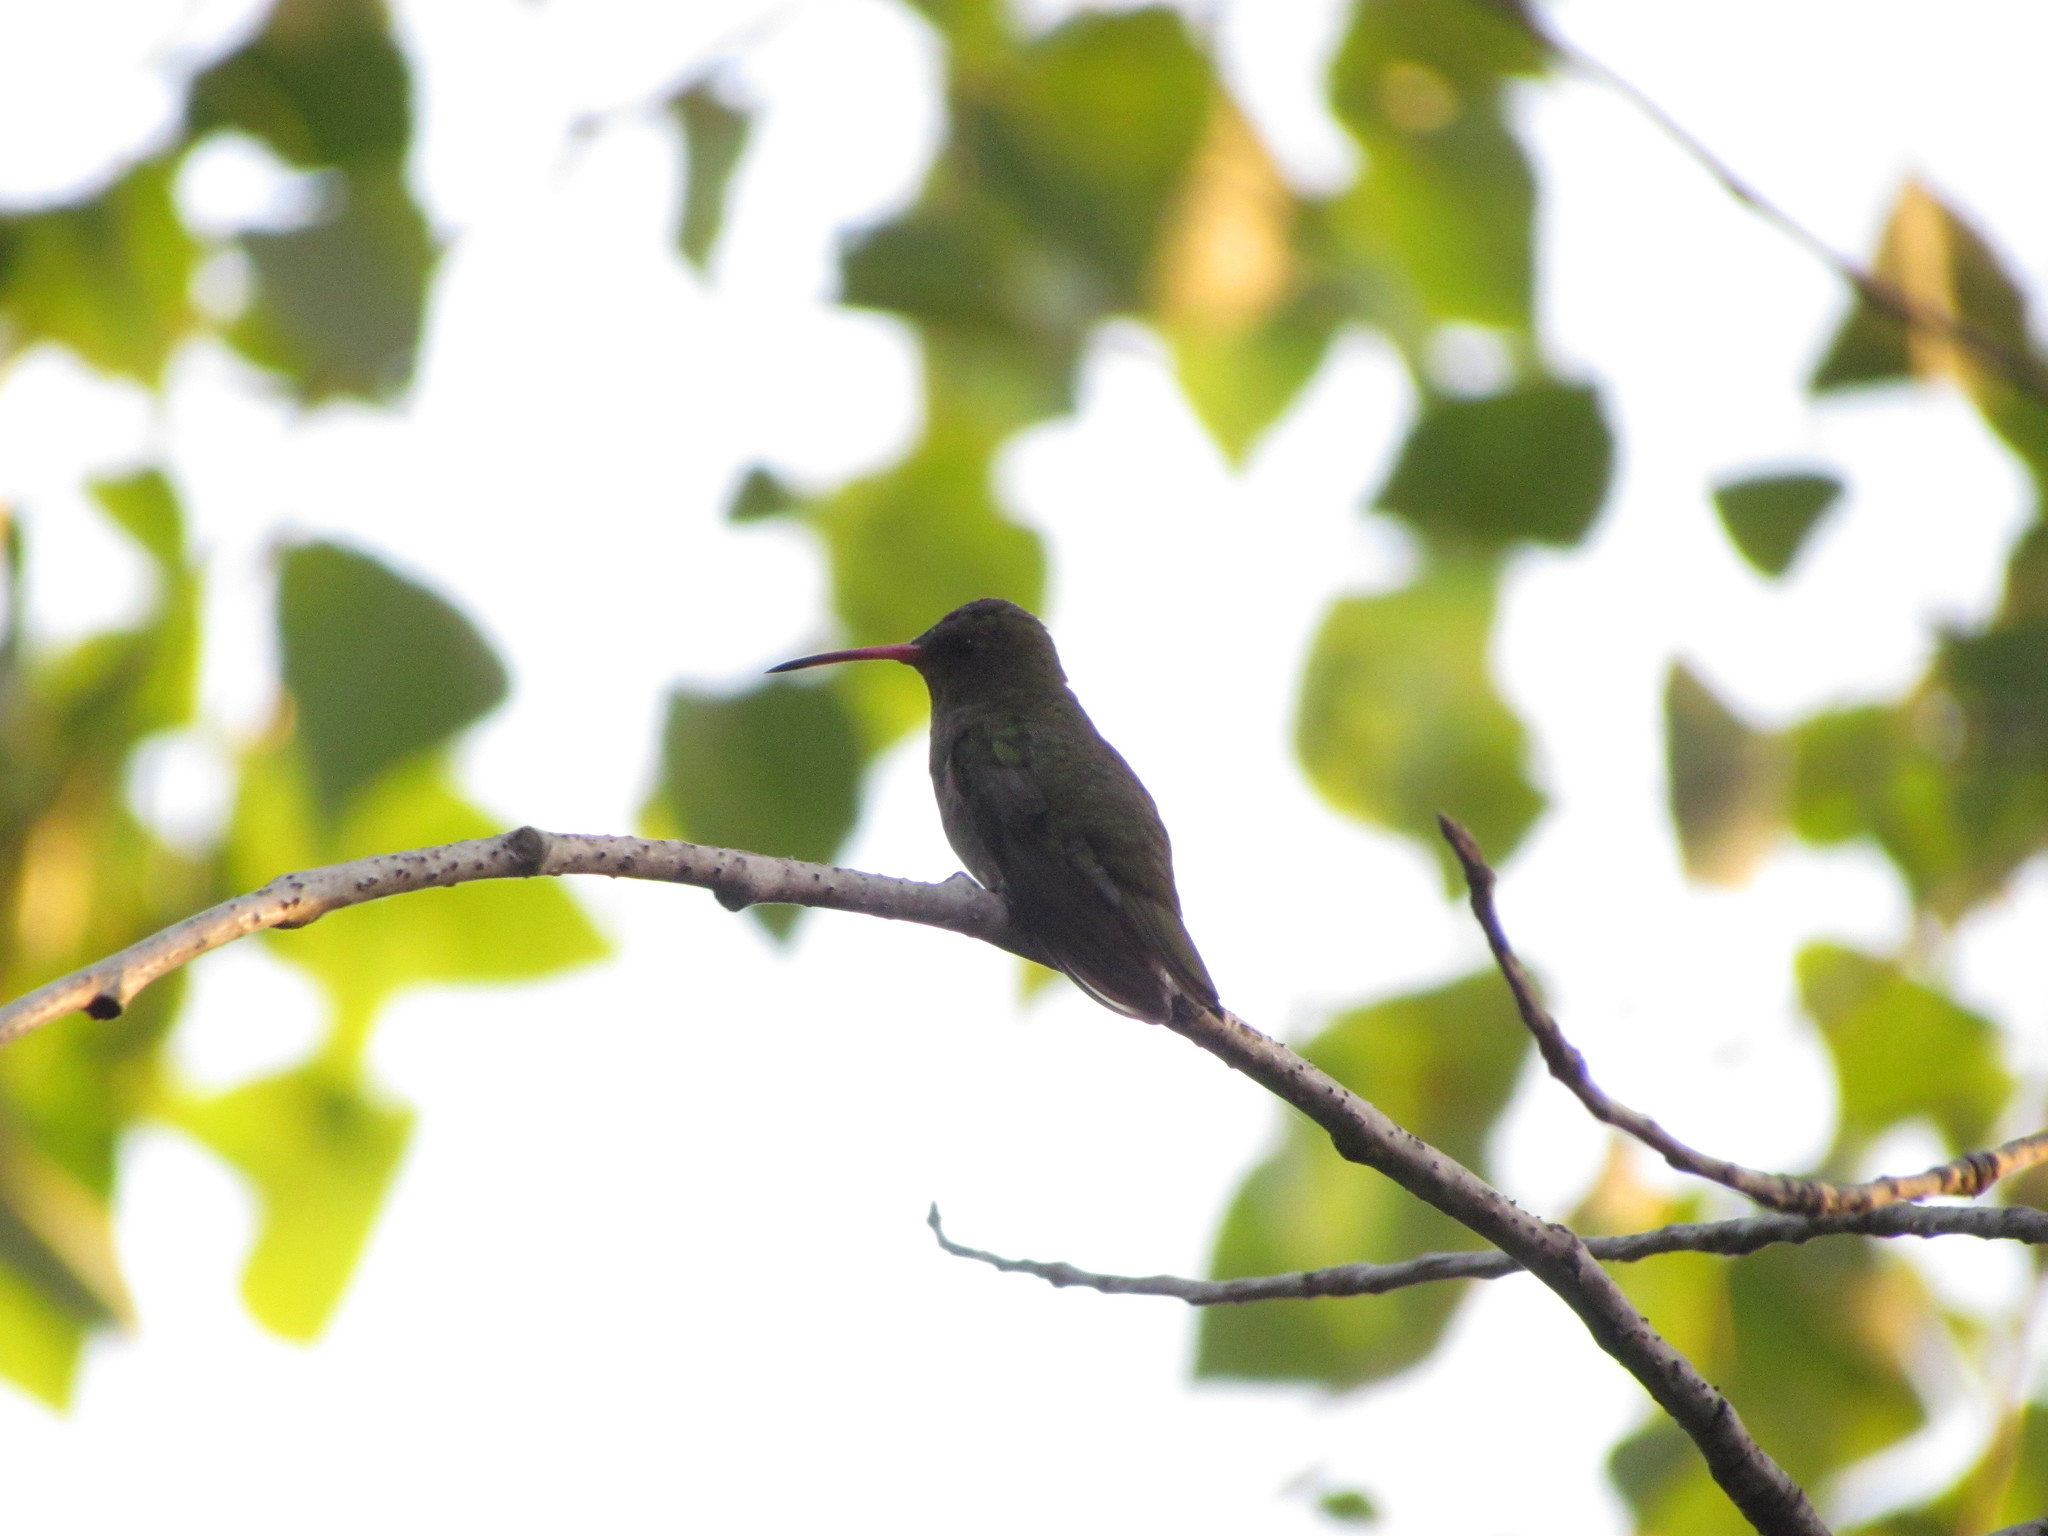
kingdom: Animalia
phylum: Chordata
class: Aves
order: Apodiformes
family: Trochilidae
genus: Hylocharis
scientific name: Hylocharis chrysura
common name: Gilded sapphire
